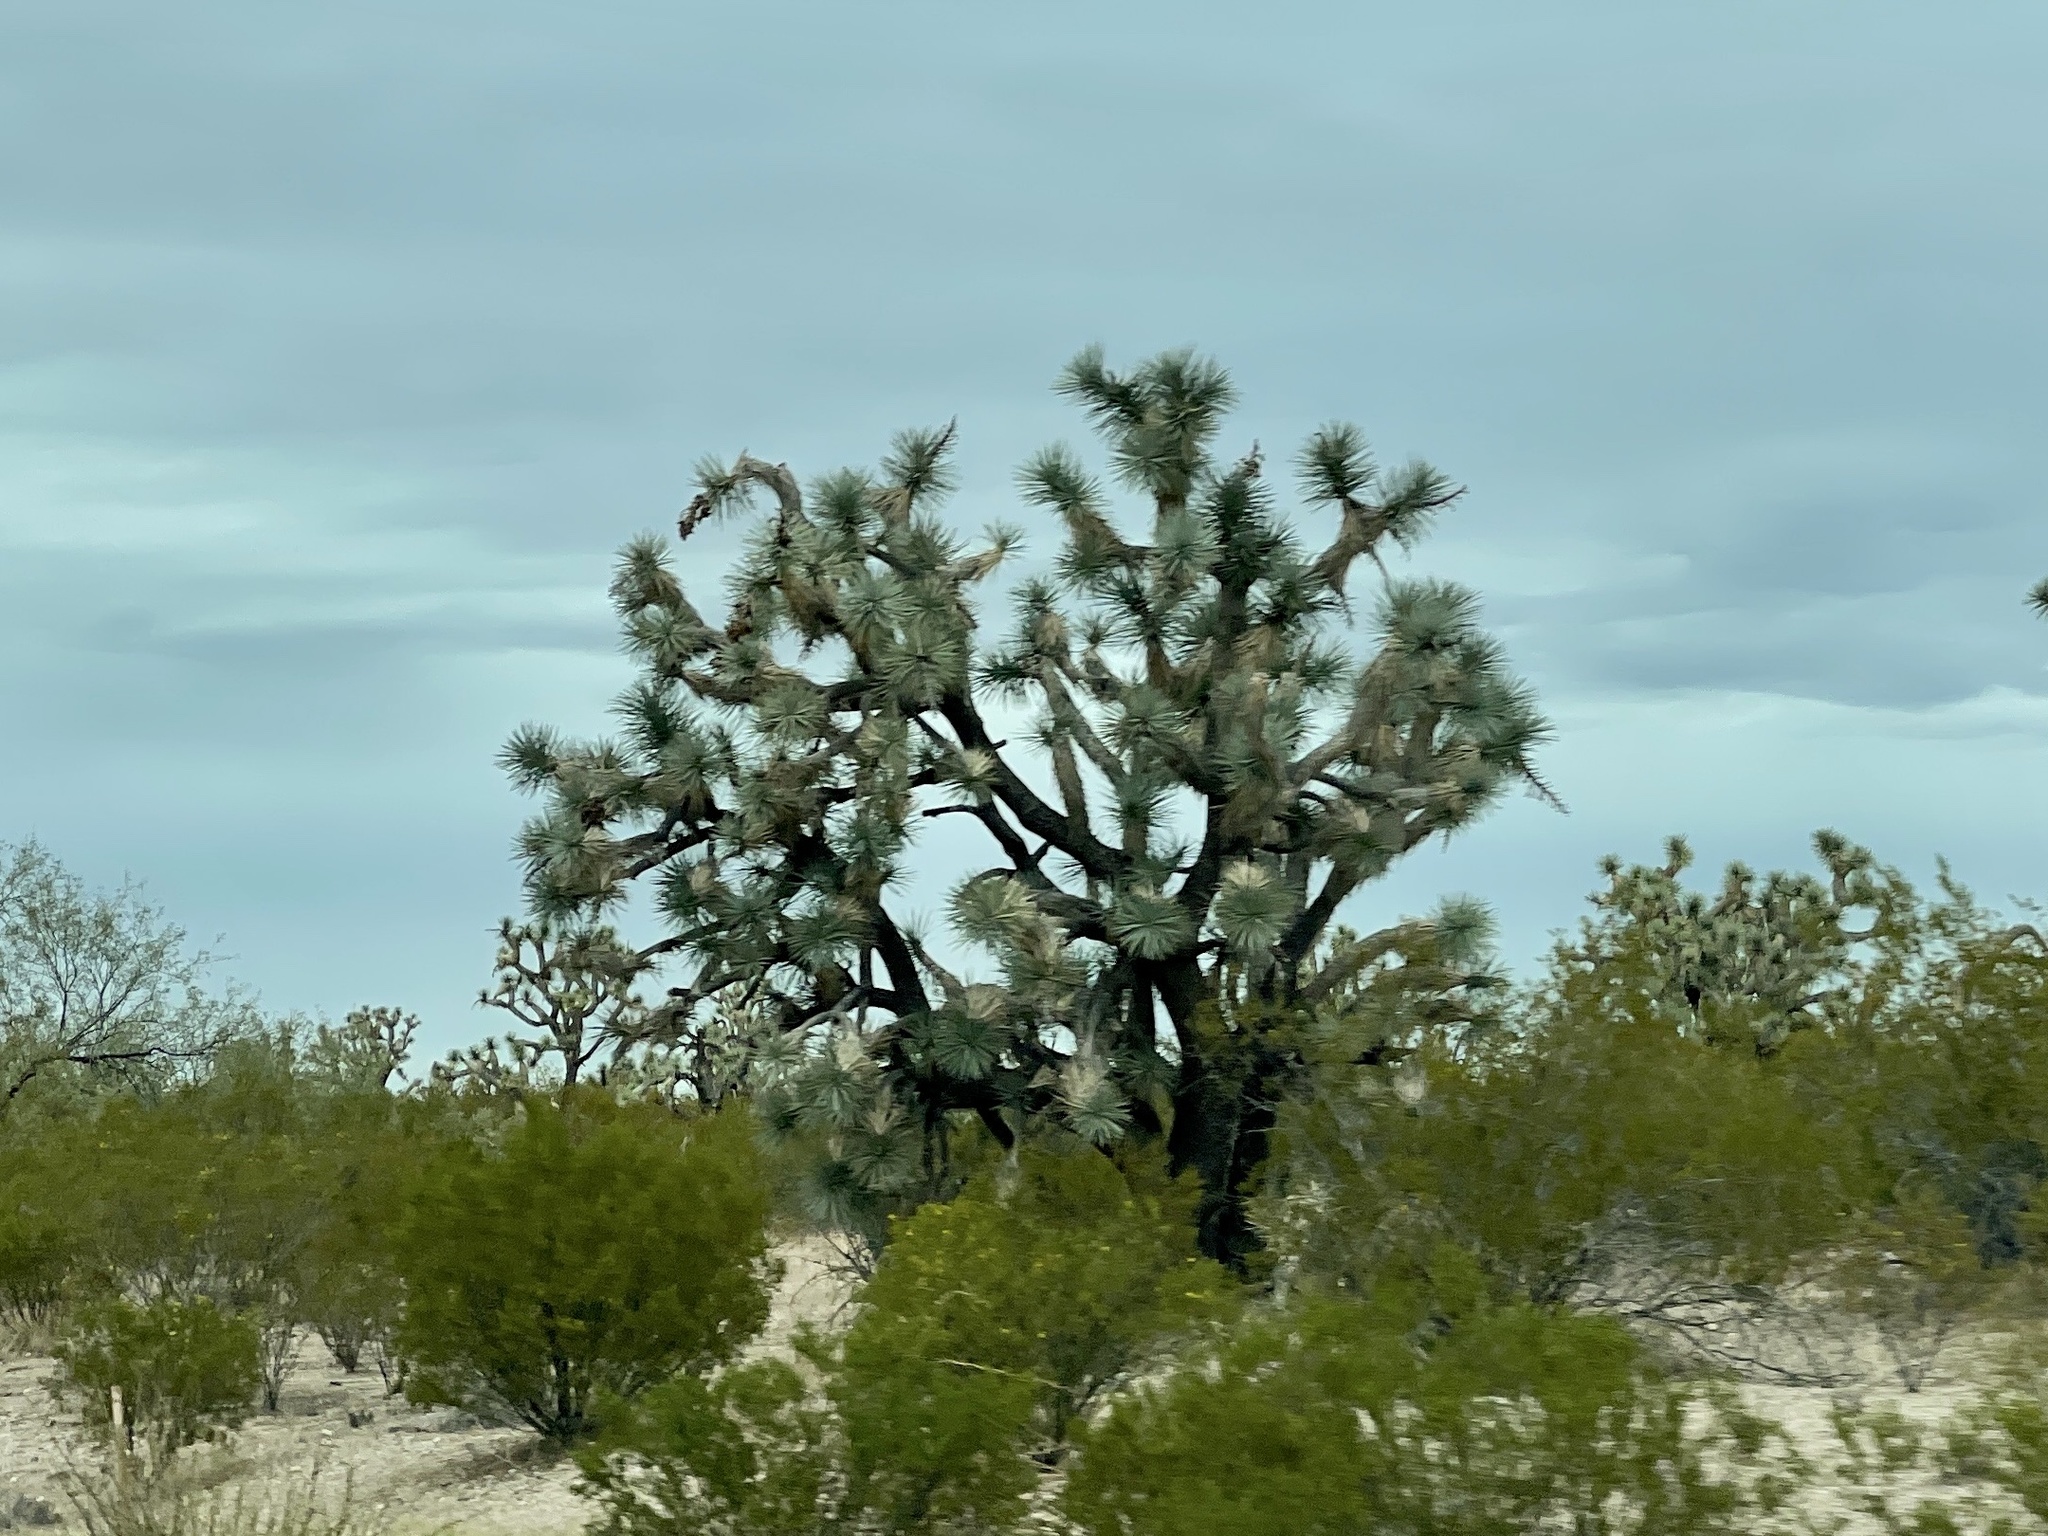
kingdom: Plantae
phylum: Tracheophyta
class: Liliopsida
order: Asparagales
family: Asparagaceae
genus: Yucca
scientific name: Yucca brevifolia
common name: Joshua tree
